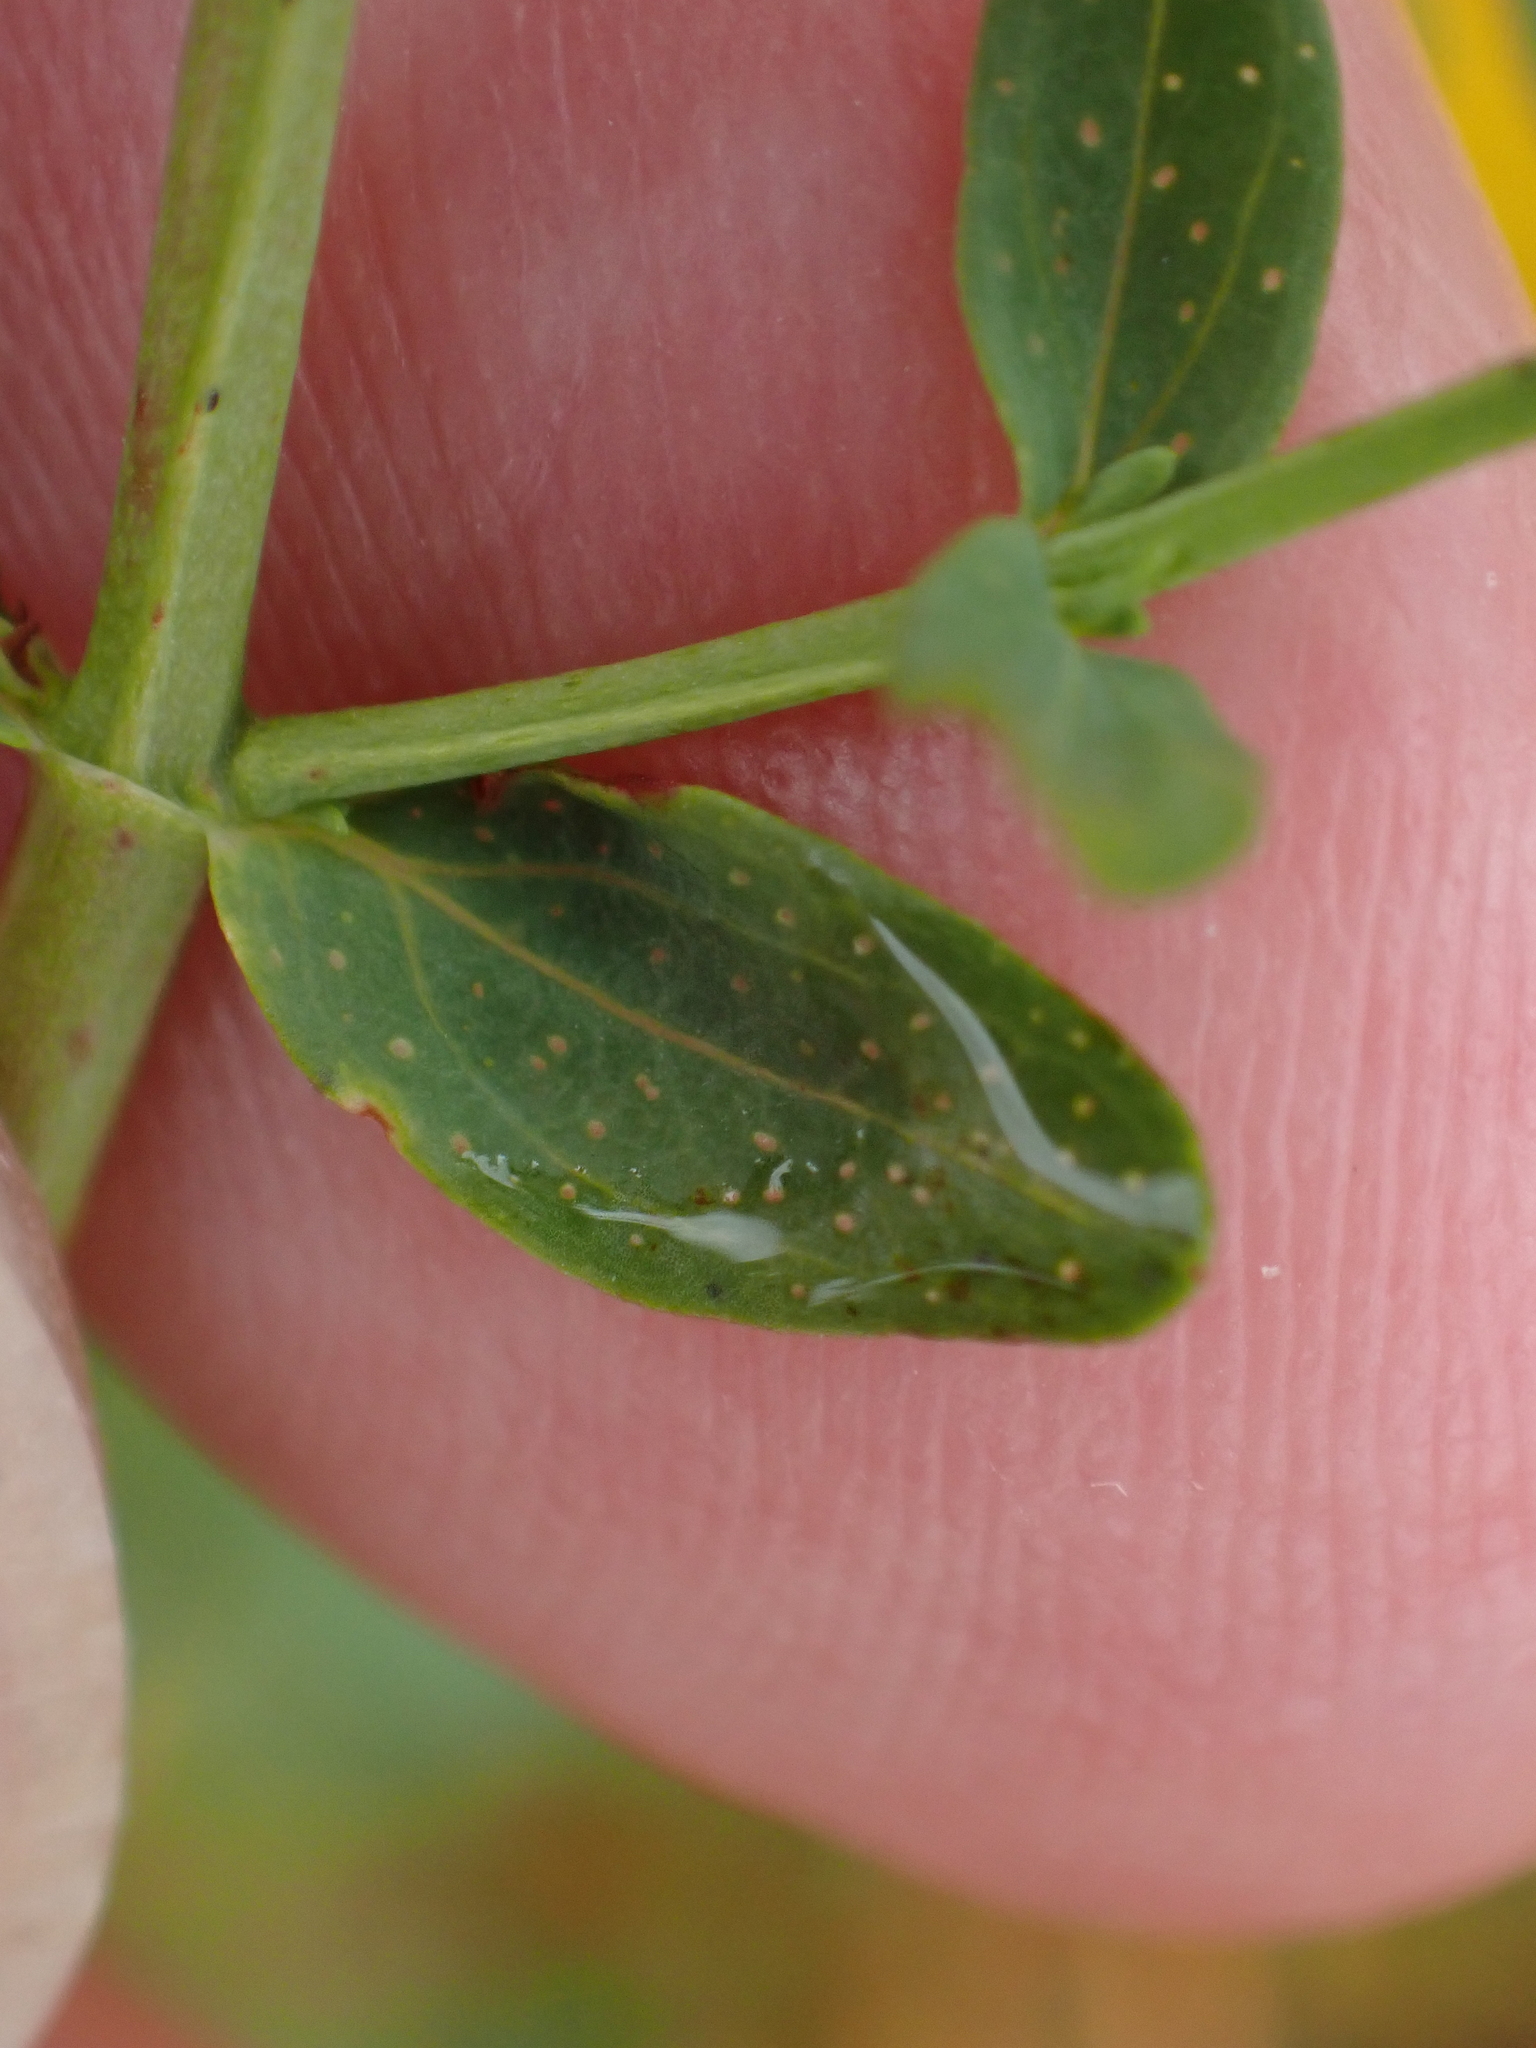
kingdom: Plantae
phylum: Tracheophyta
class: Magnoliopsida
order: Malpighiales
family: Hypericaceae
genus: Hypericum
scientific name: Hypericum perforatum
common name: Common st. johnswort
